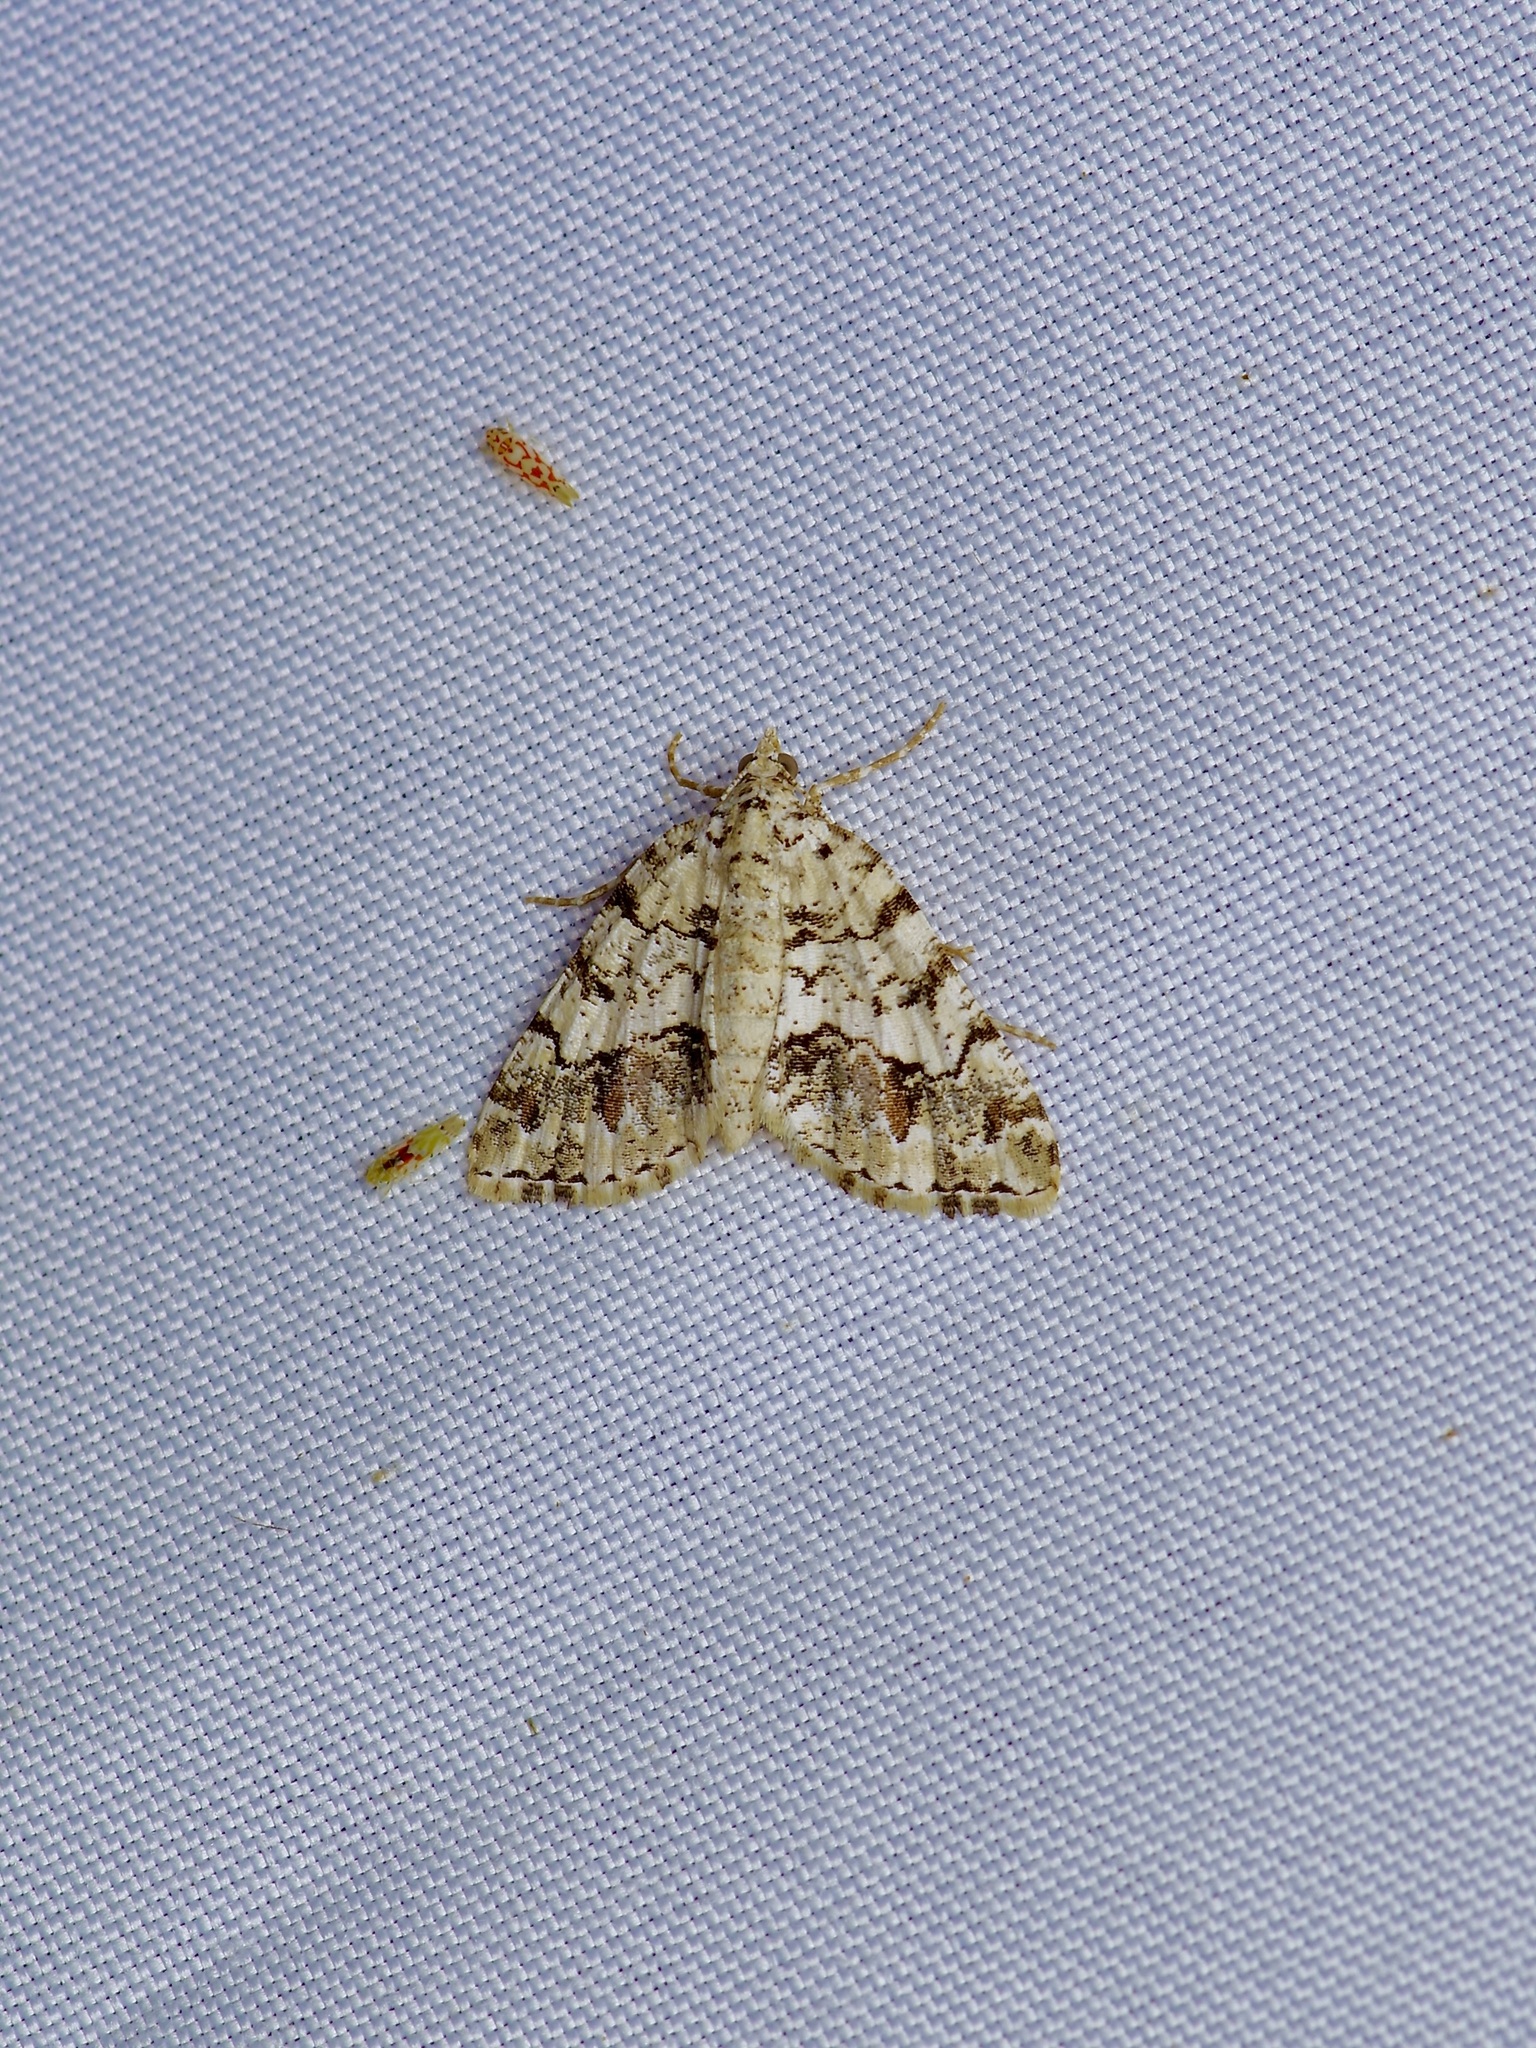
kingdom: Animalia
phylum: Arthropoda
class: Insecta
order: Lepidoptera
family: Geometridae
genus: Macaria
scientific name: Macaria graphidaria
